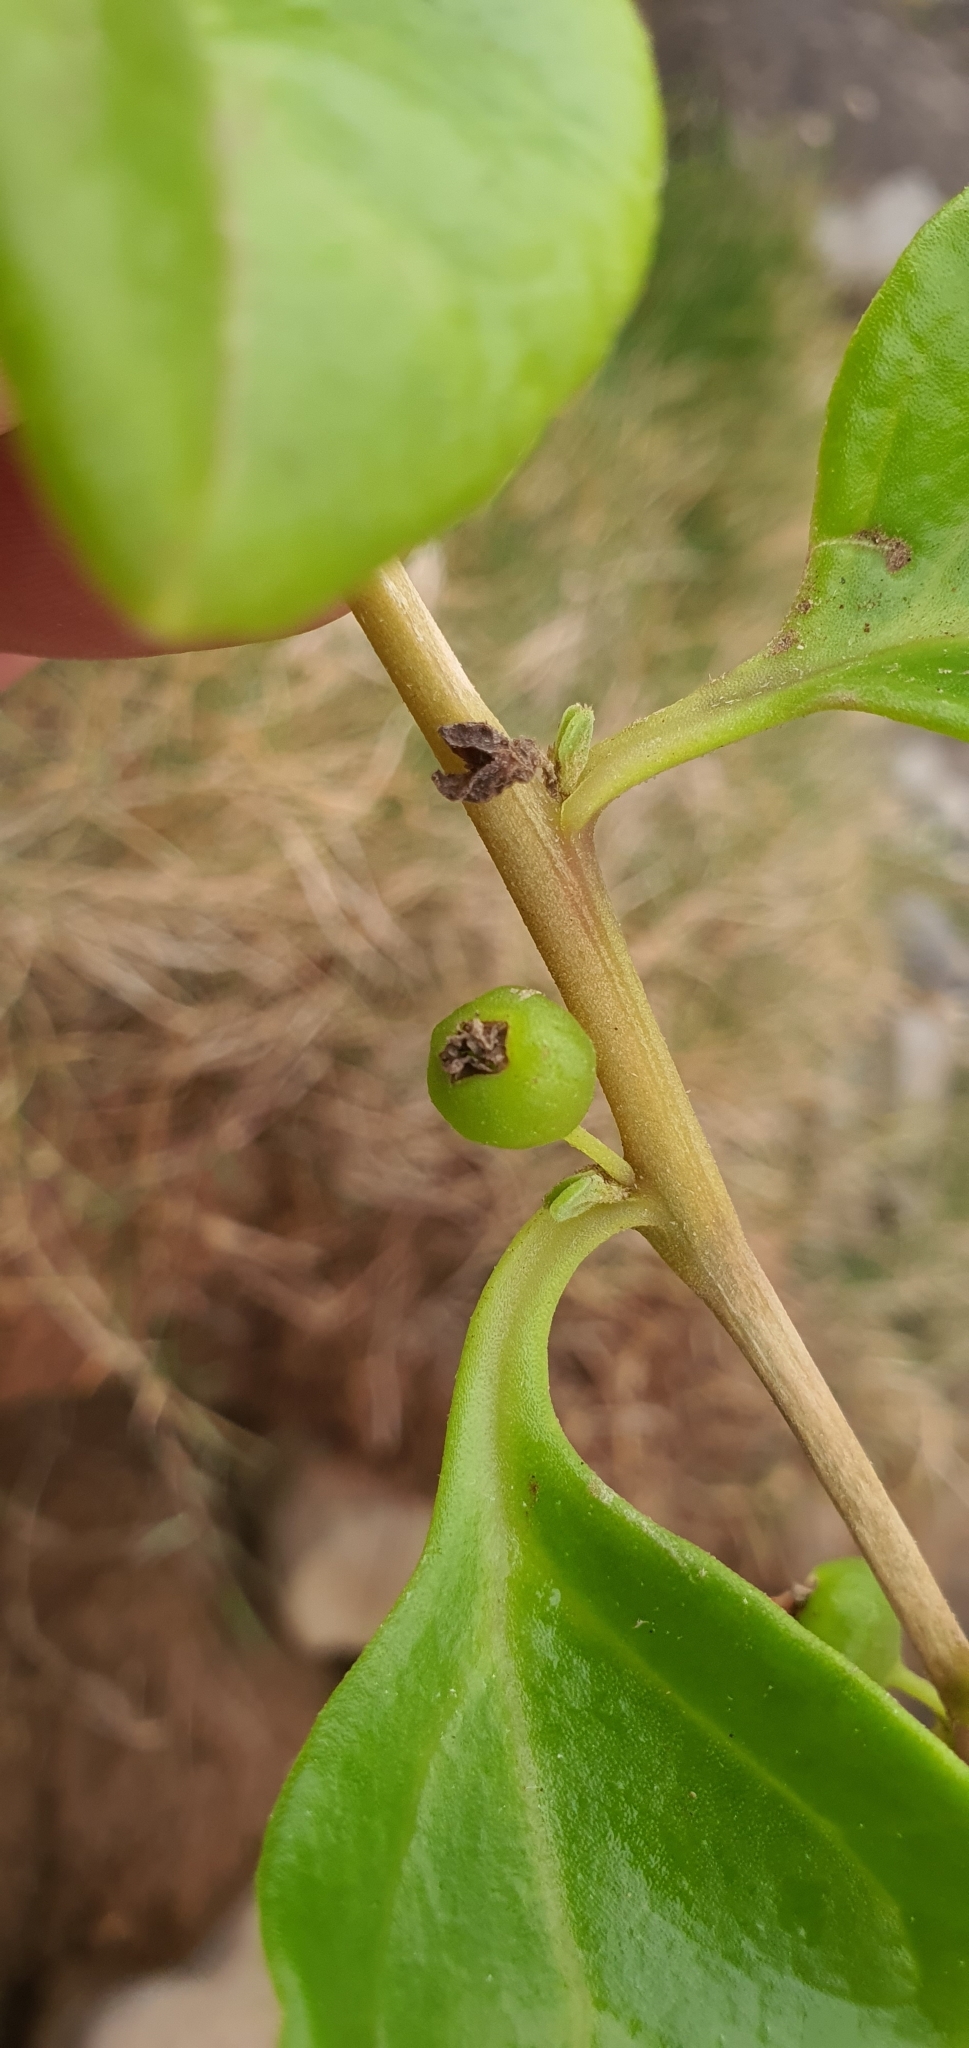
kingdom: Plantae
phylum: Tracheophyta
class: Magnoliopsida
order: Caryophyllales
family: Aizoaceae
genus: Tetragonia
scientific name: Tetragonia implexicoma
